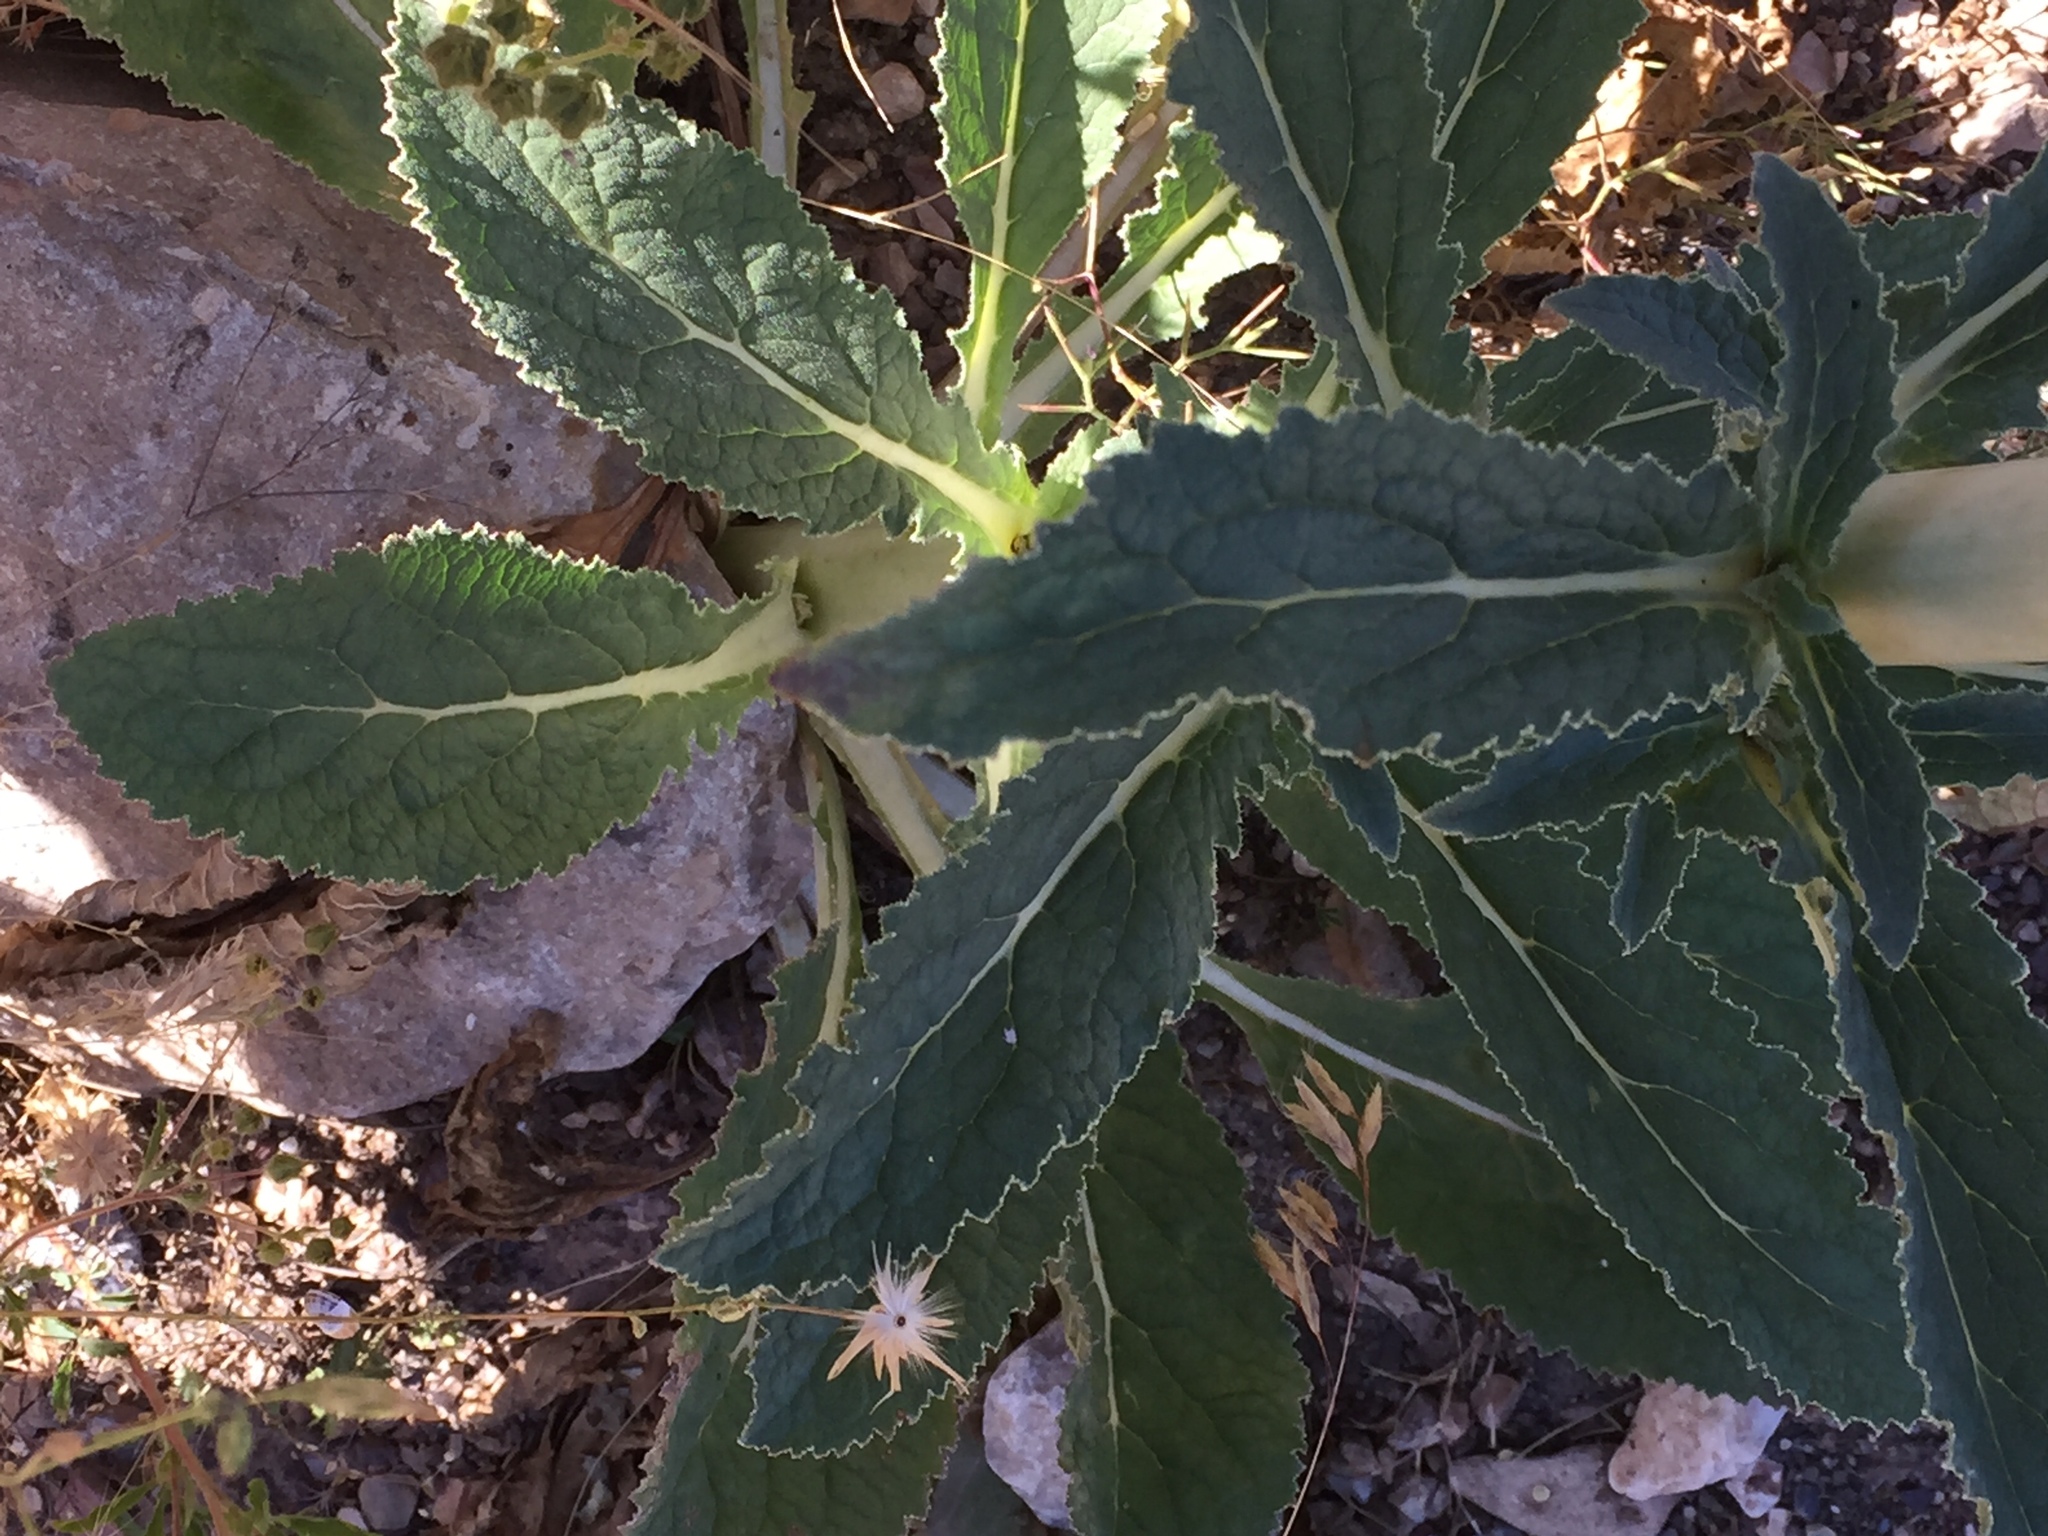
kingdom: Plantae
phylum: Tracheophyta
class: Magnoliopsida
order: Asterales
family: Campanulaceae
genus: Michauxia
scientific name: Michauxia laevigata
